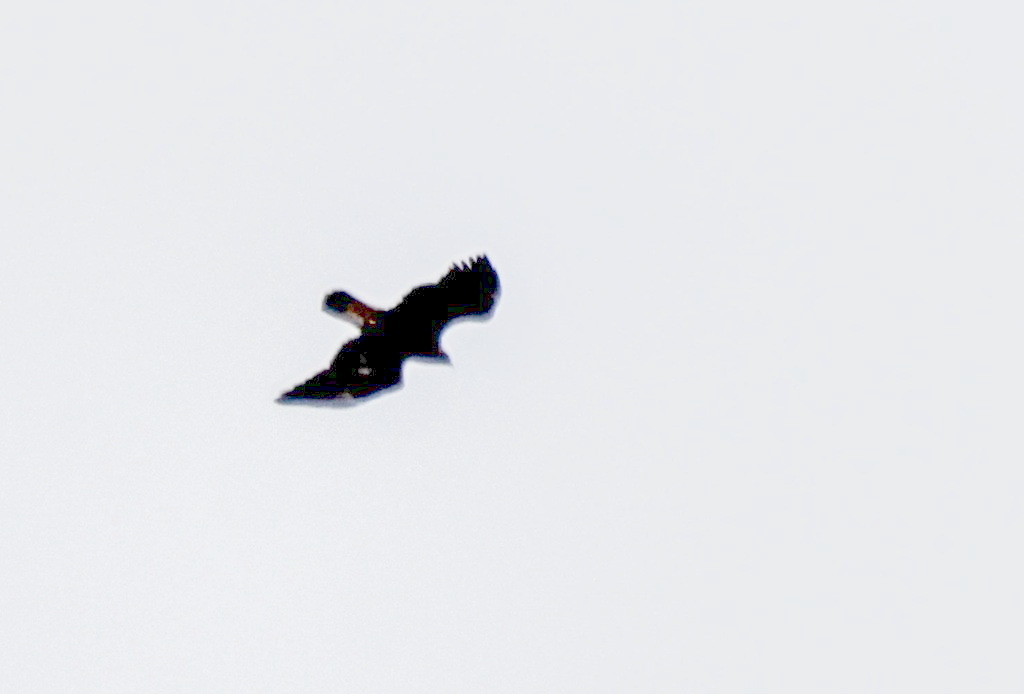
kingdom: Animalia
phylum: Chordata
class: Aves
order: Accipitriformes
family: Accipitridae
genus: Aquila
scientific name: Aquila chrysaetos
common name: Golden eagle
